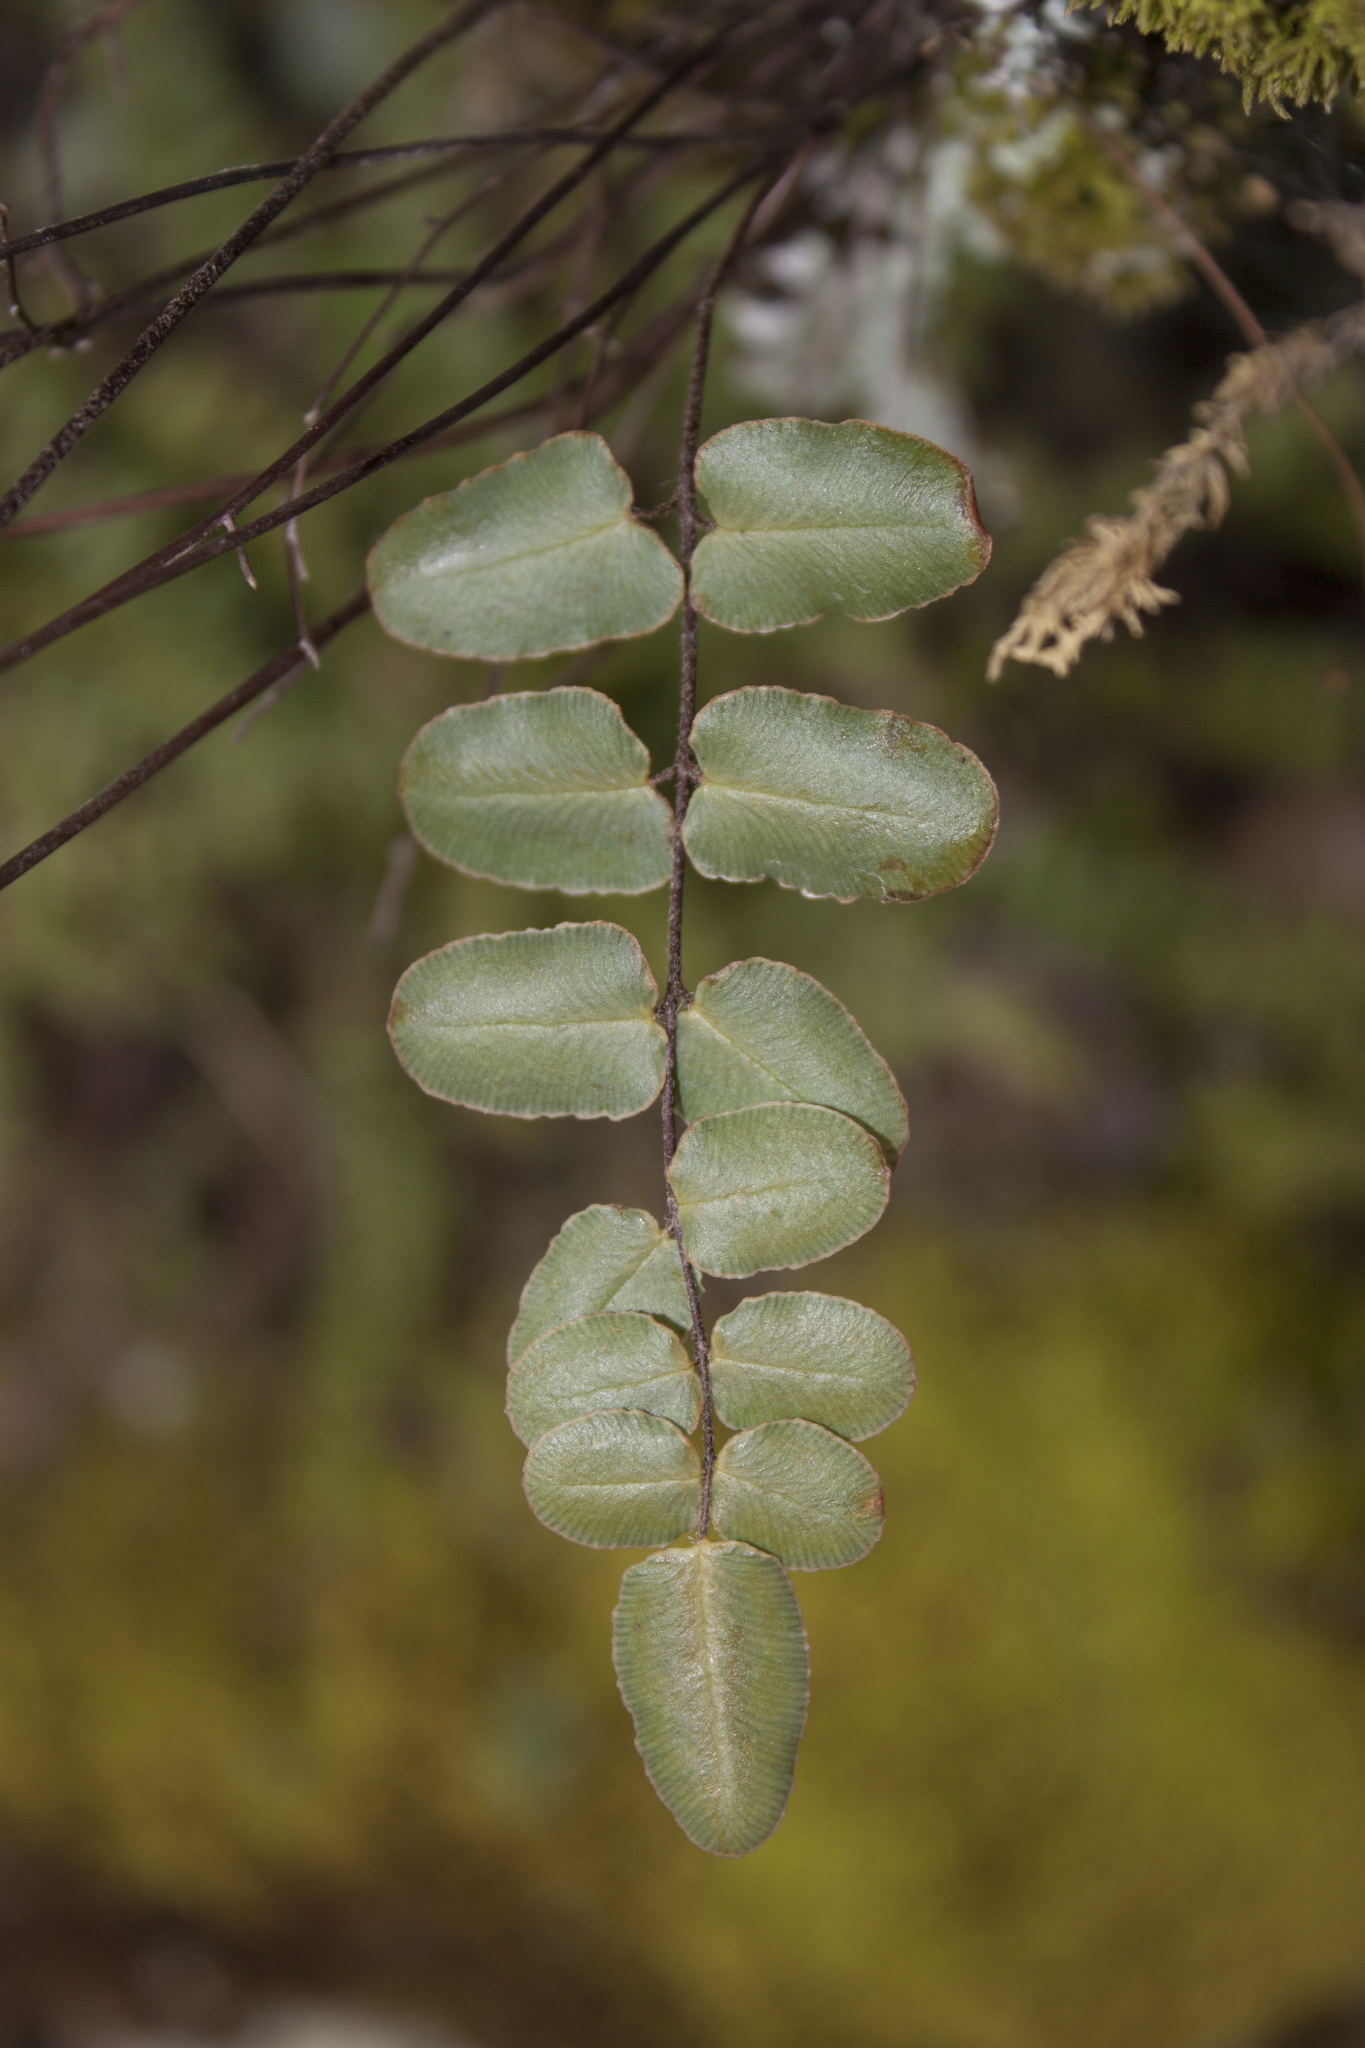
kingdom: Plantae
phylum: Tracheophyta
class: Polypodiopsida
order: Polypodiales
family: Pteridaceae
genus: Pellaea
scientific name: Pellaea atropurpurea
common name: Hairy cliffbrake
